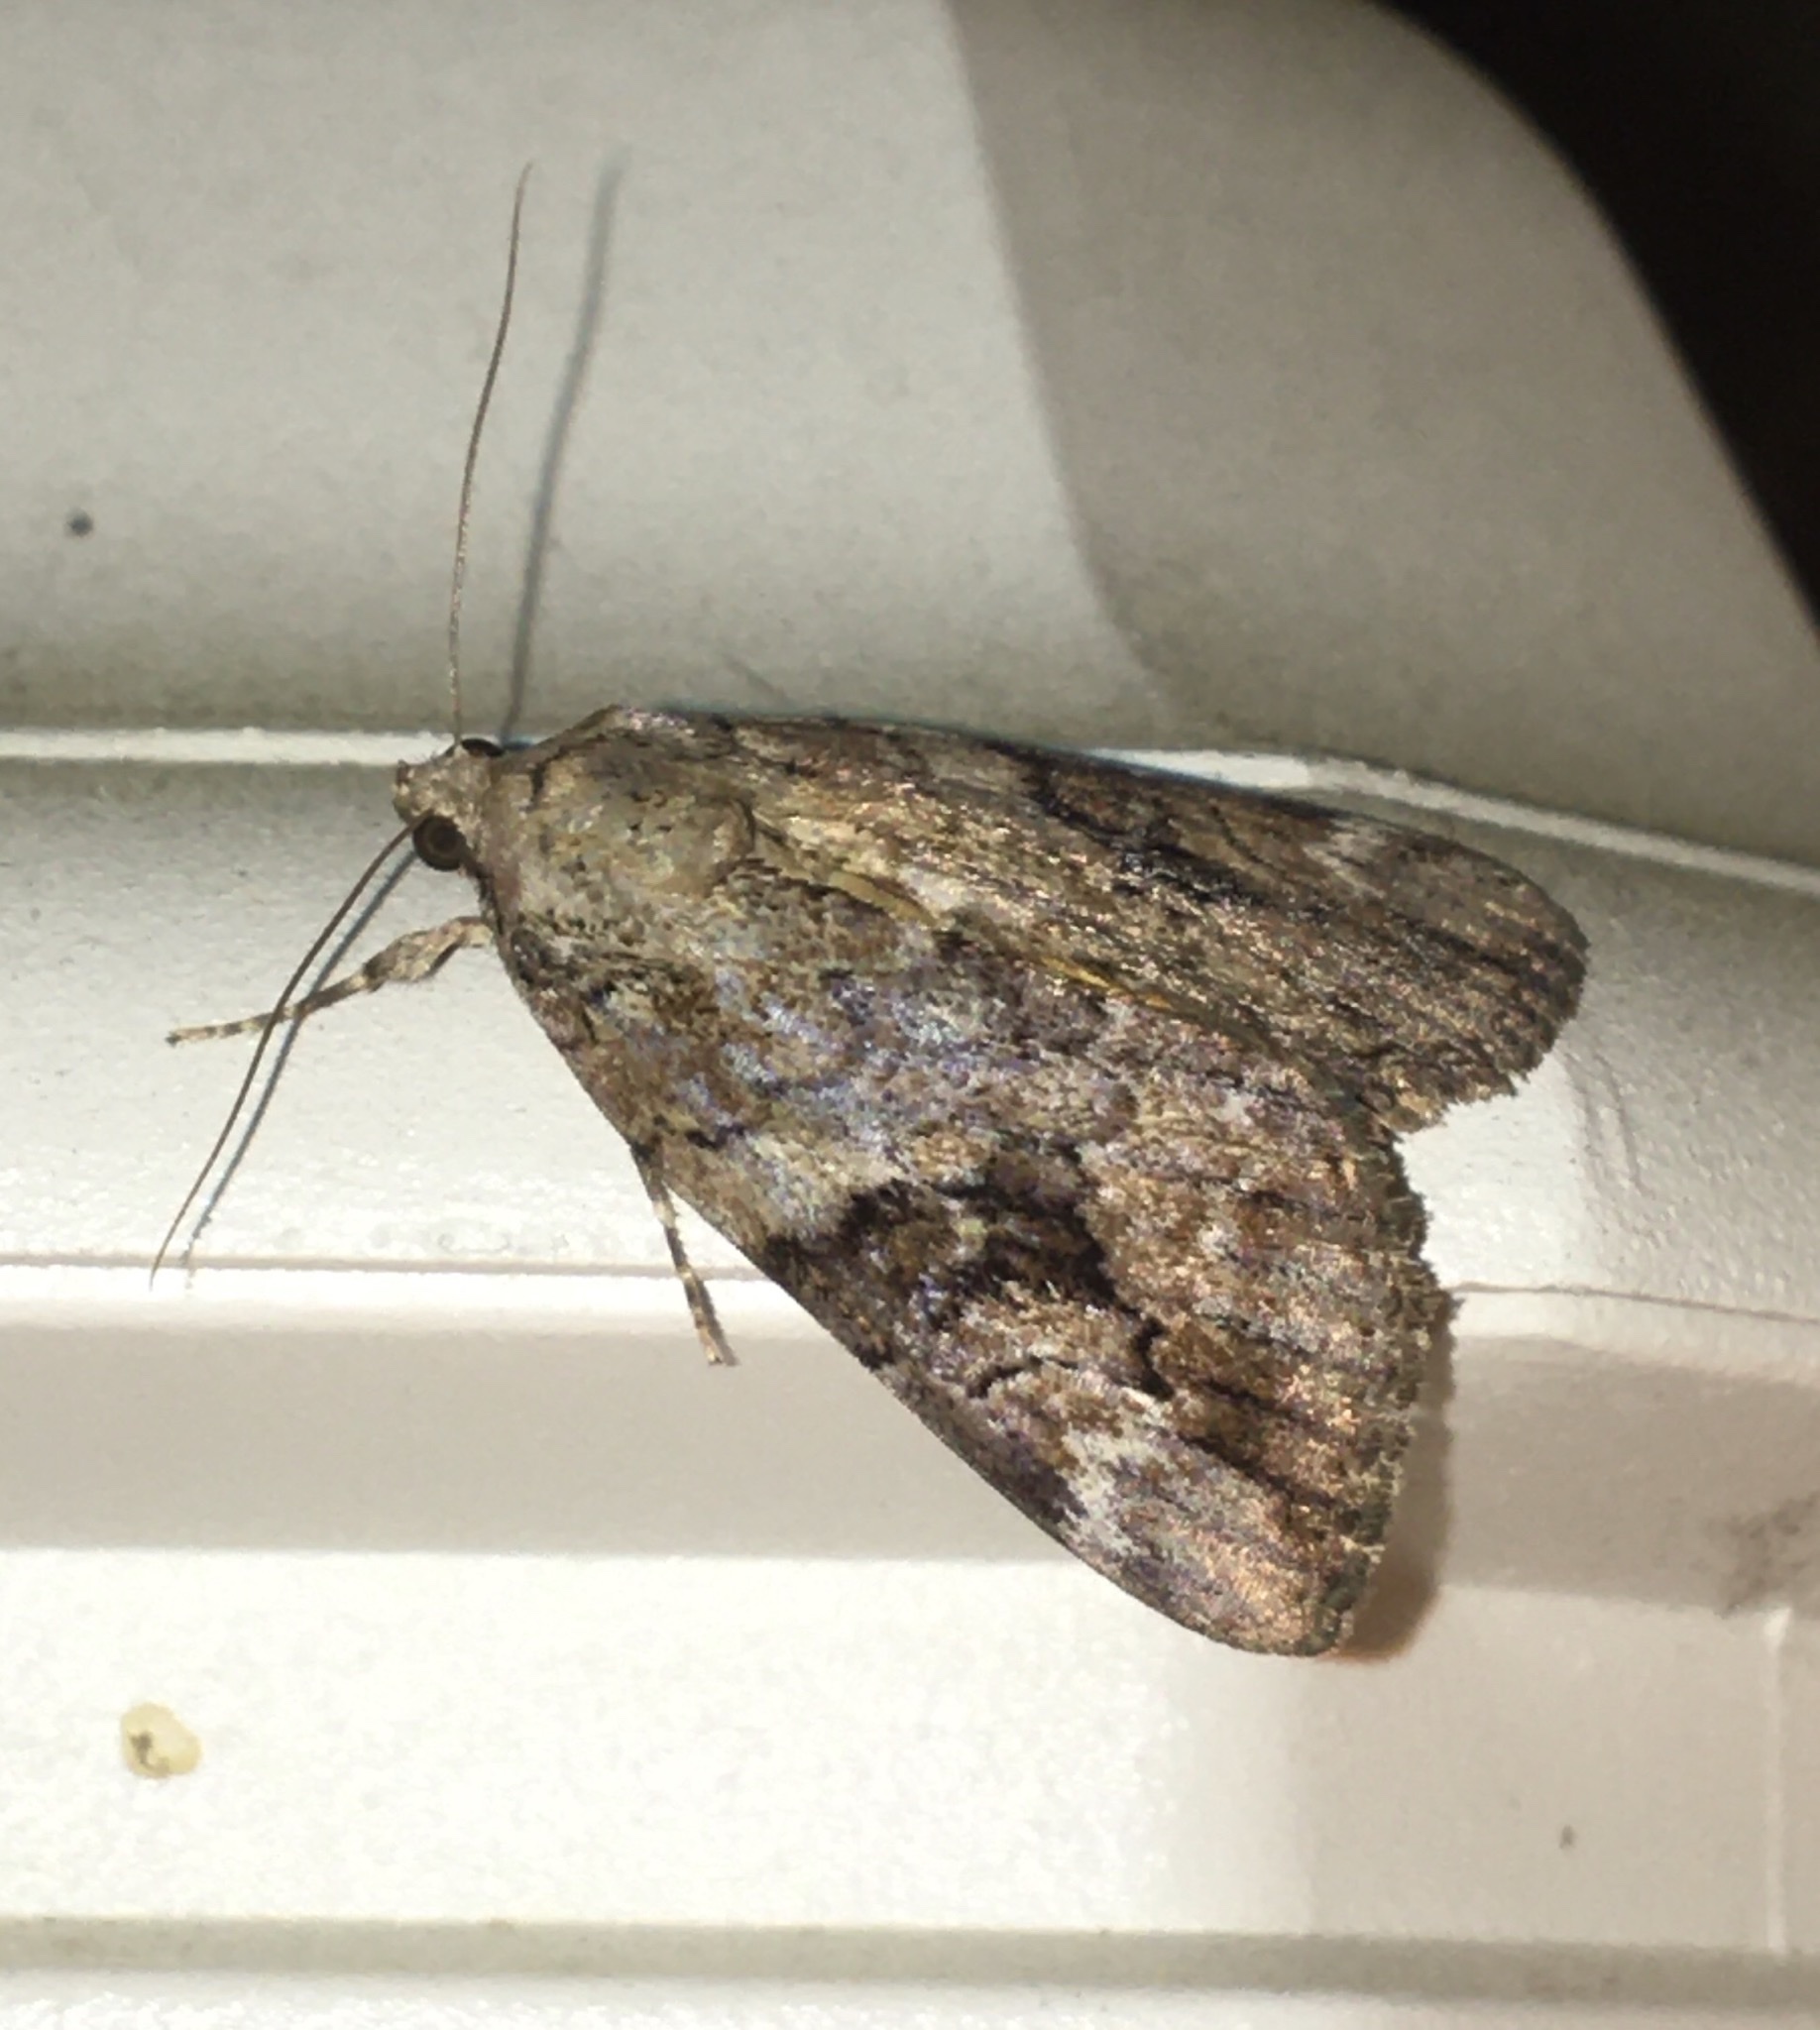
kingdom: Animalia
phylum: Arthropoda
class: Insecta
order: Lepidoptera
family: Erebidae
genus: Catocala
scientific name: Catocala micronympha
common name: Little nymph underwing
